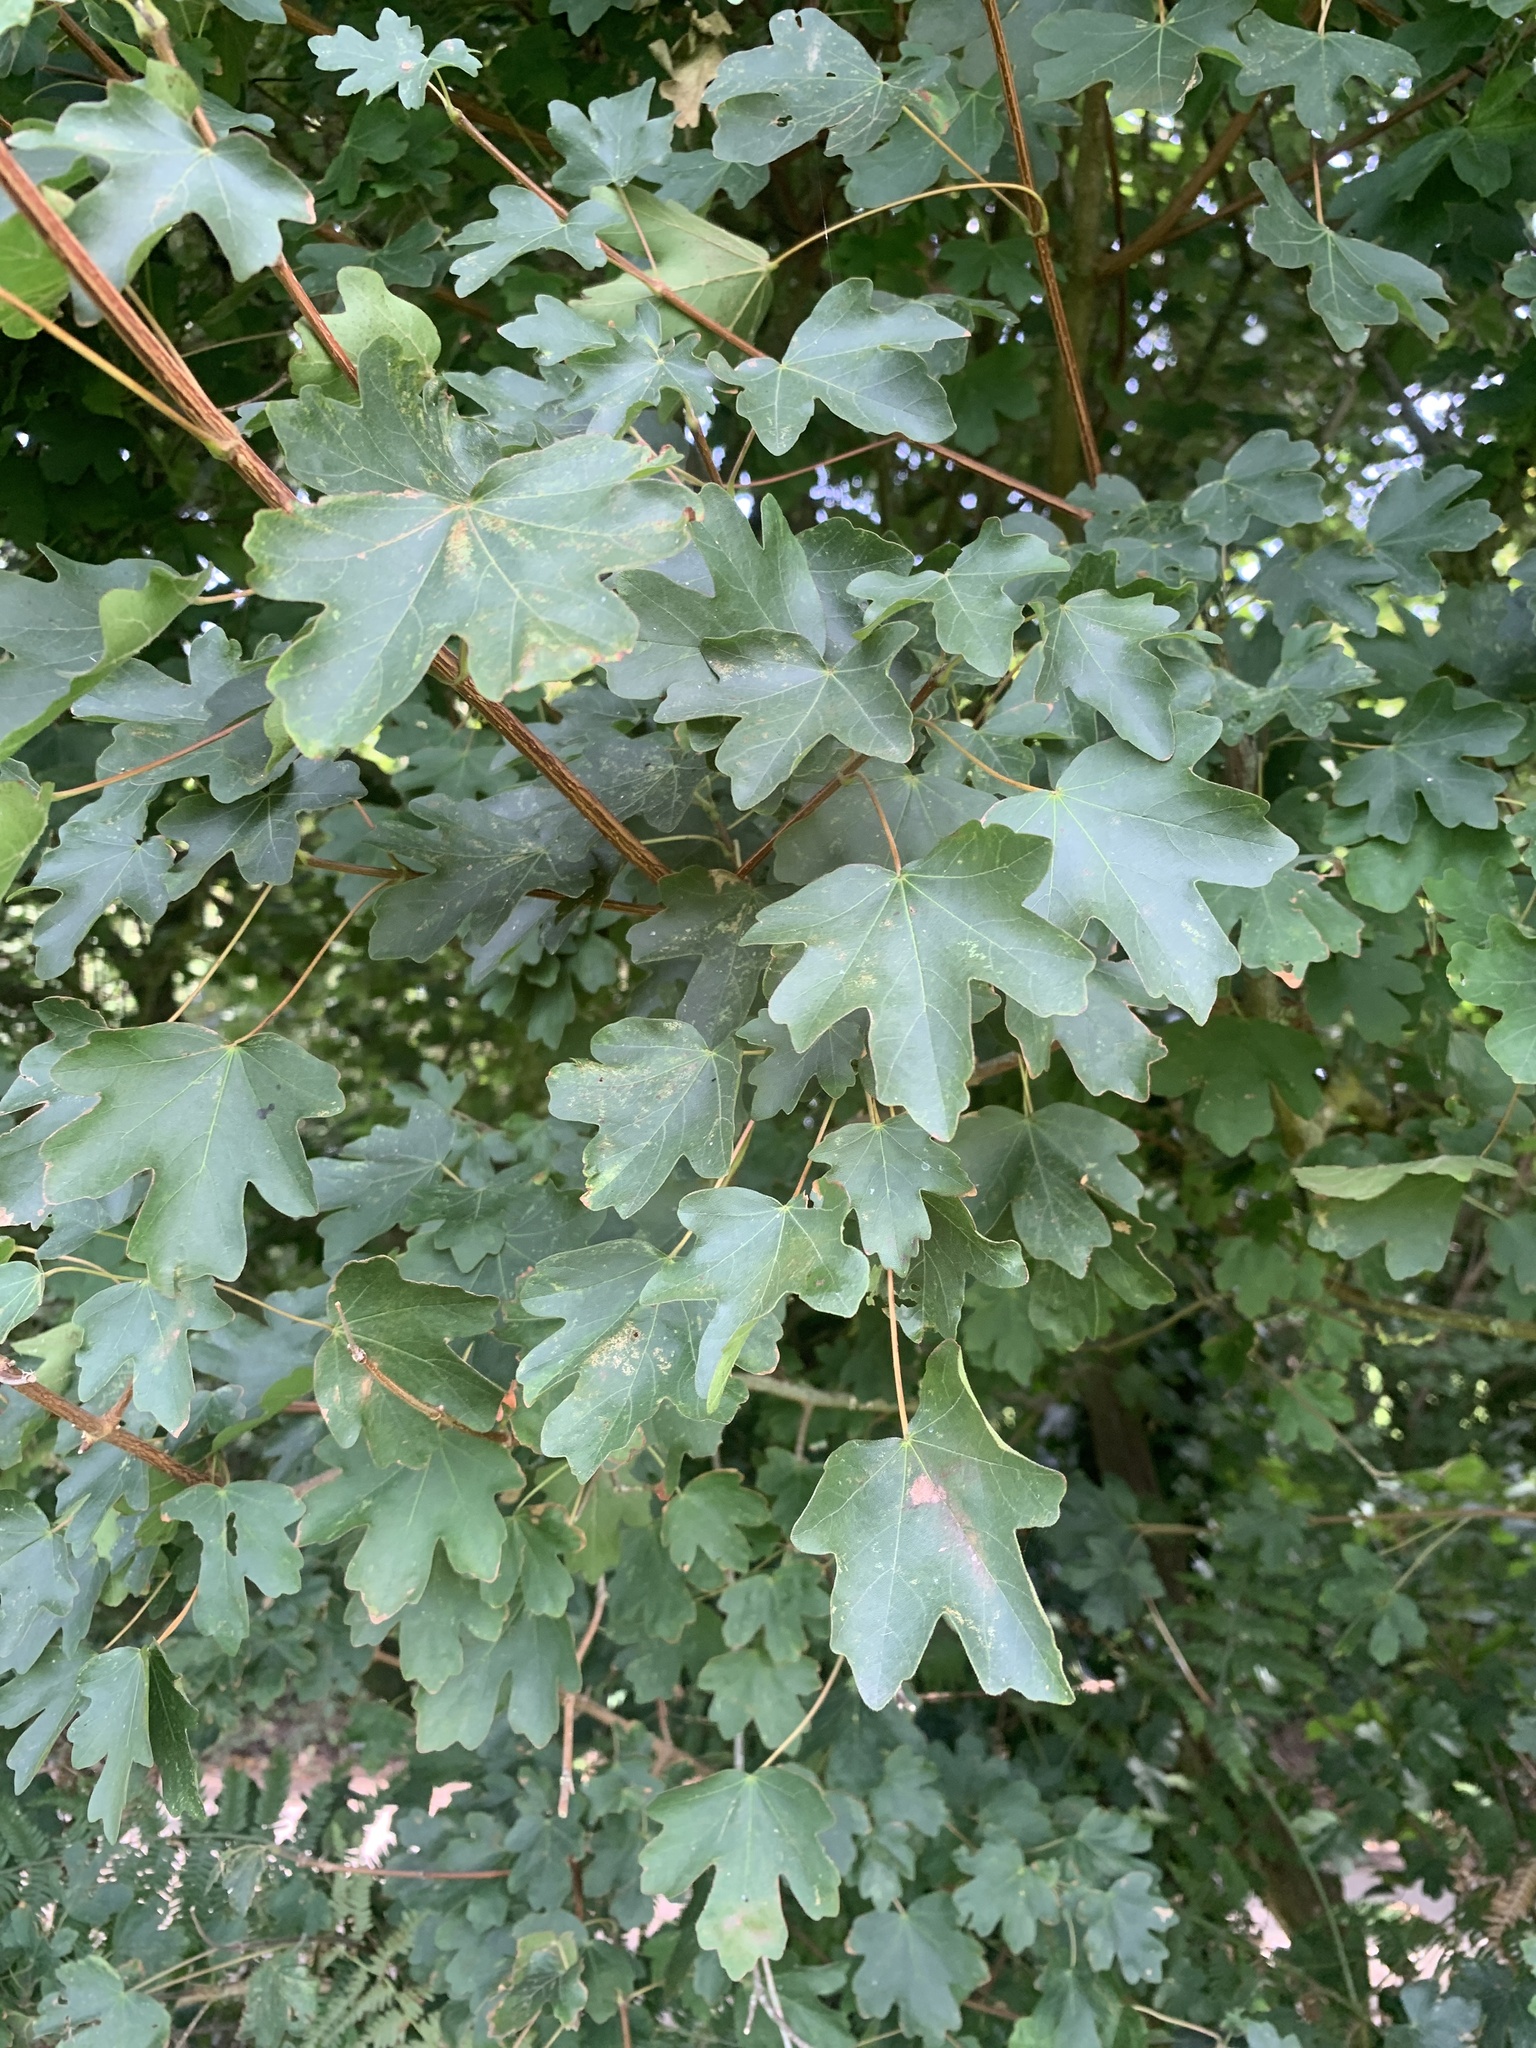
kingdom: Plantae
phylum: Tracheophyta
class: Magnoliopsida
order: Sapindales
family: Sapindaceae
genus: Acer
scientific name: Acer campestre
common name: Field maple
